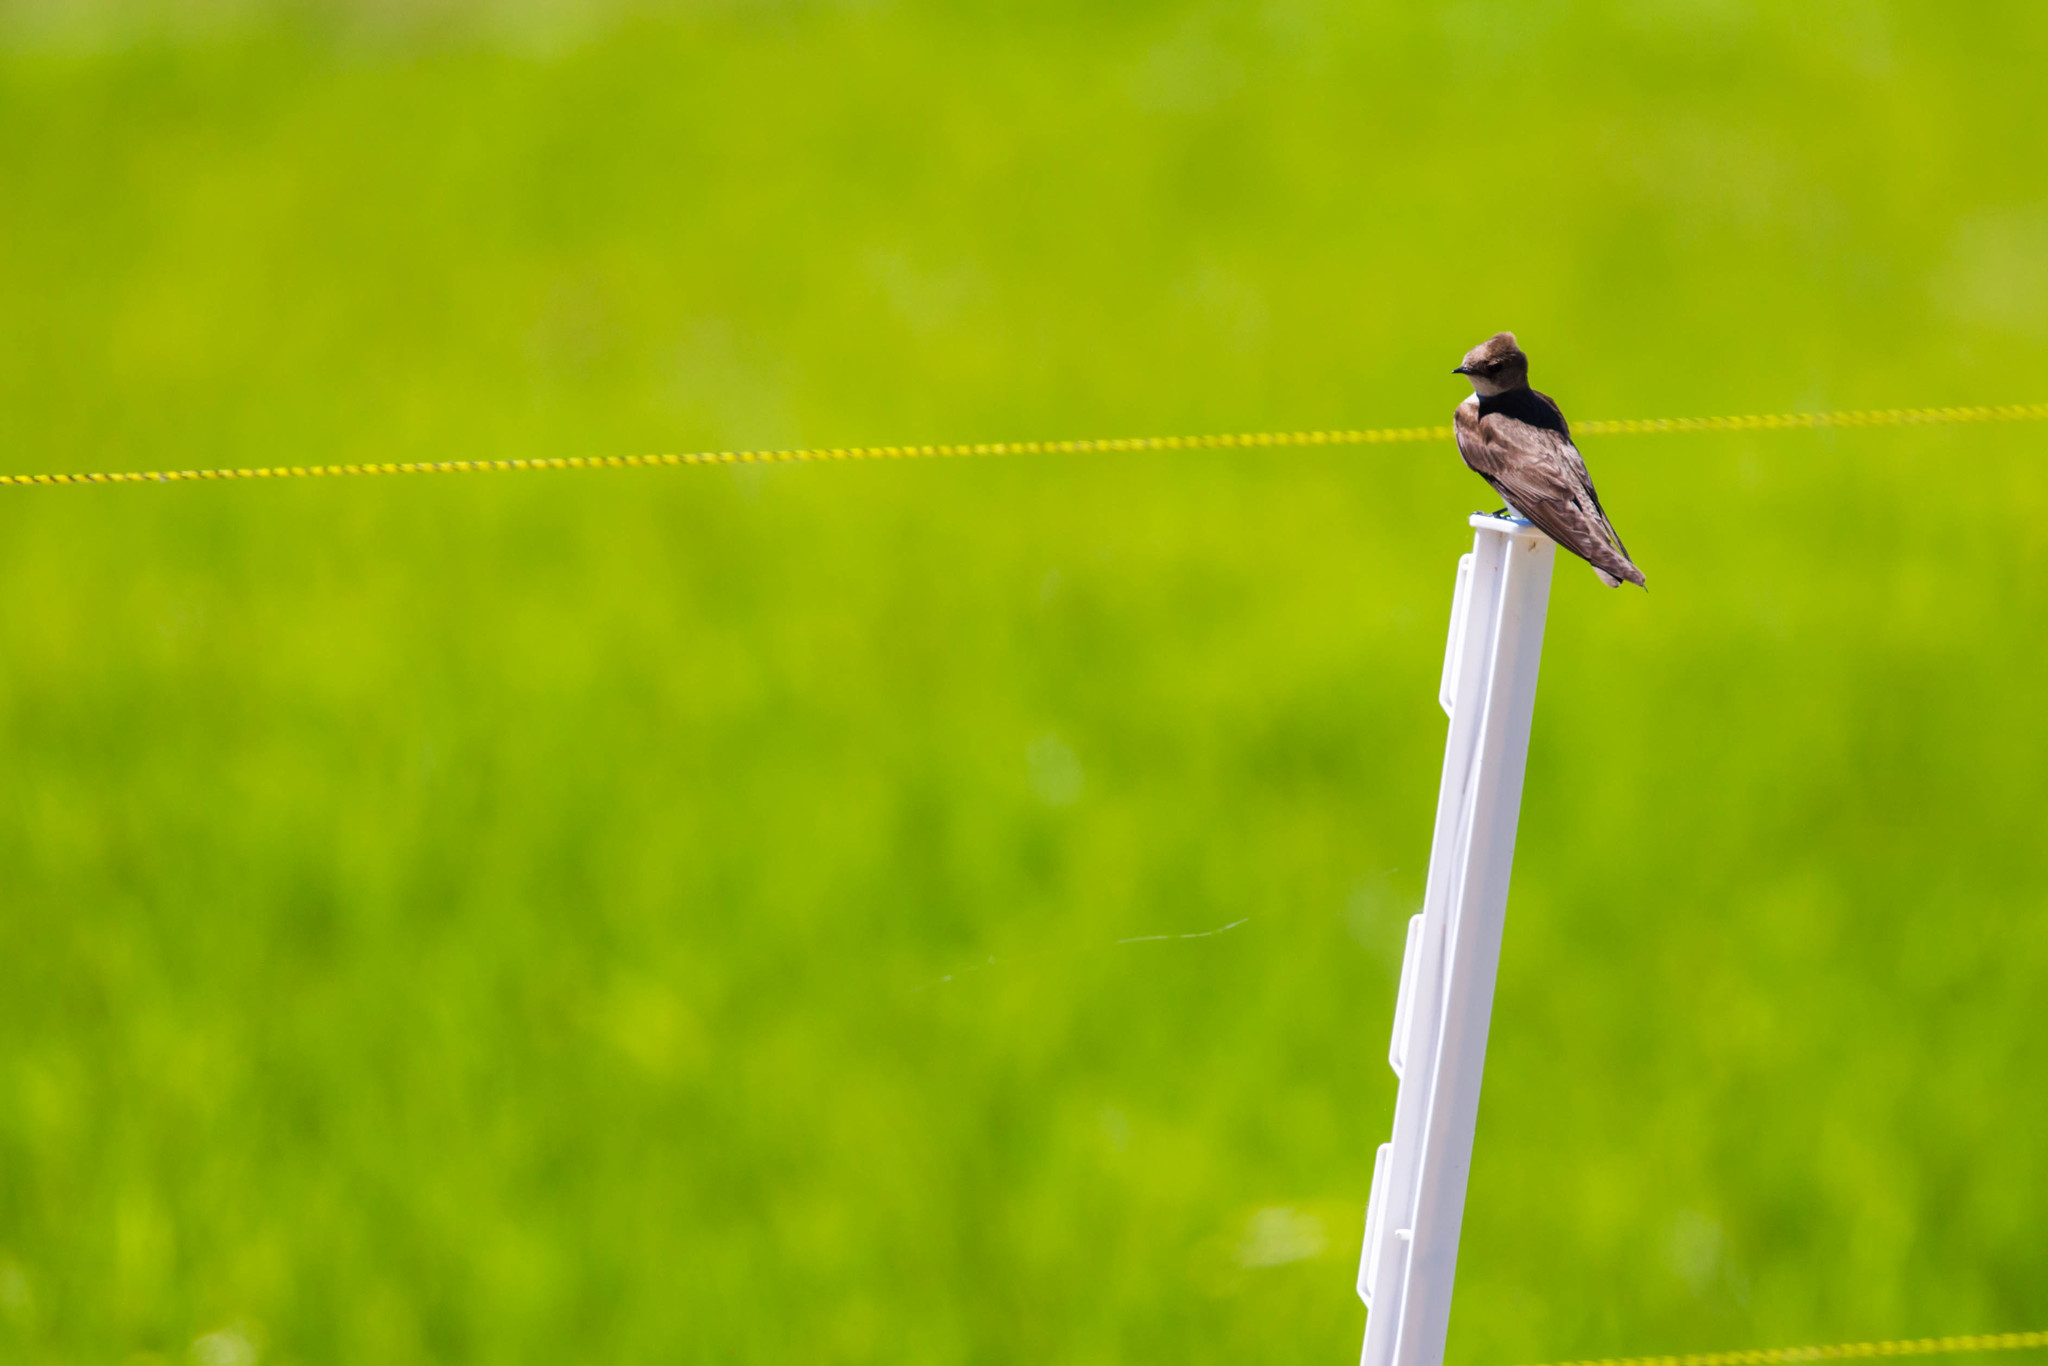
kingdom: Animalia
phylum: Chordata
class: Aves
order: Passeriformes
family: Hirundinidae
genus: Stelgidopteryx
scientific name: Stelgidopteryx serripennis
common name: Northern rough-winged swallow
